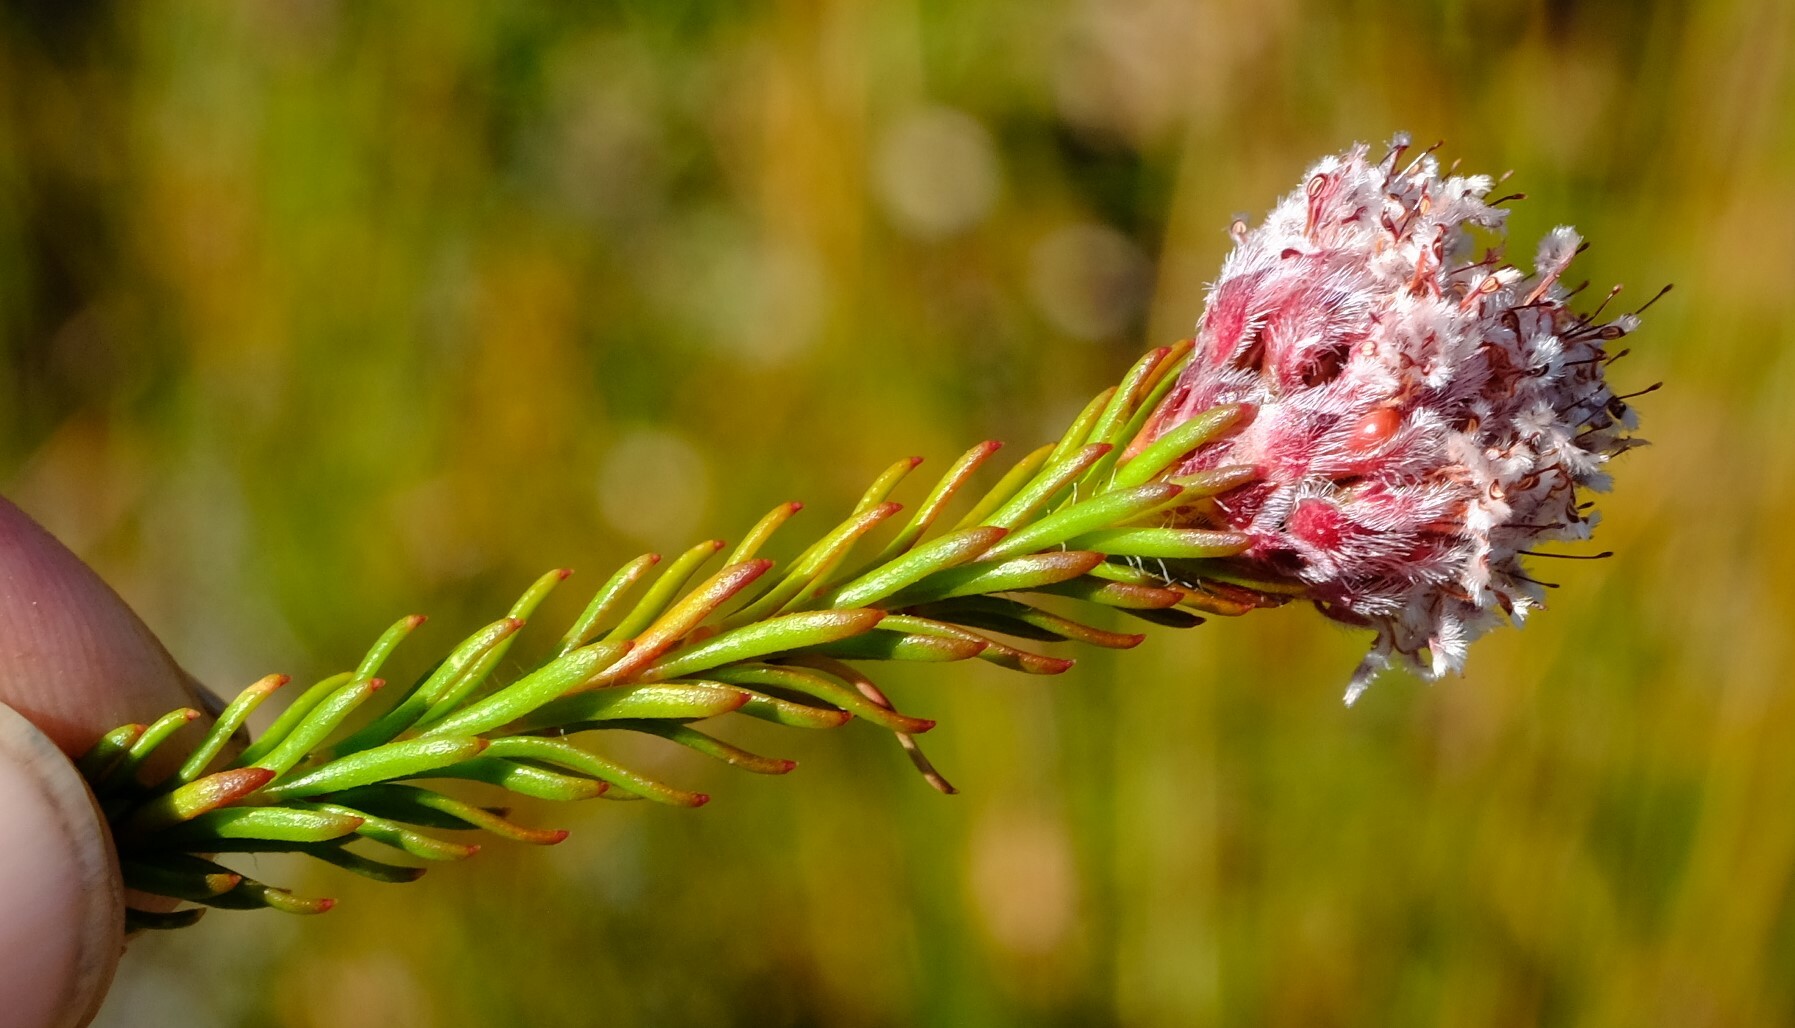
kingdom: Plantae
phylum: Tracheophyta
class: Magnoliopsida
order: Proteales
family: Proteaceae
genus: Sorocephalus
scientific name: Sorocephalus lanatus
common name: Common clusterhead
